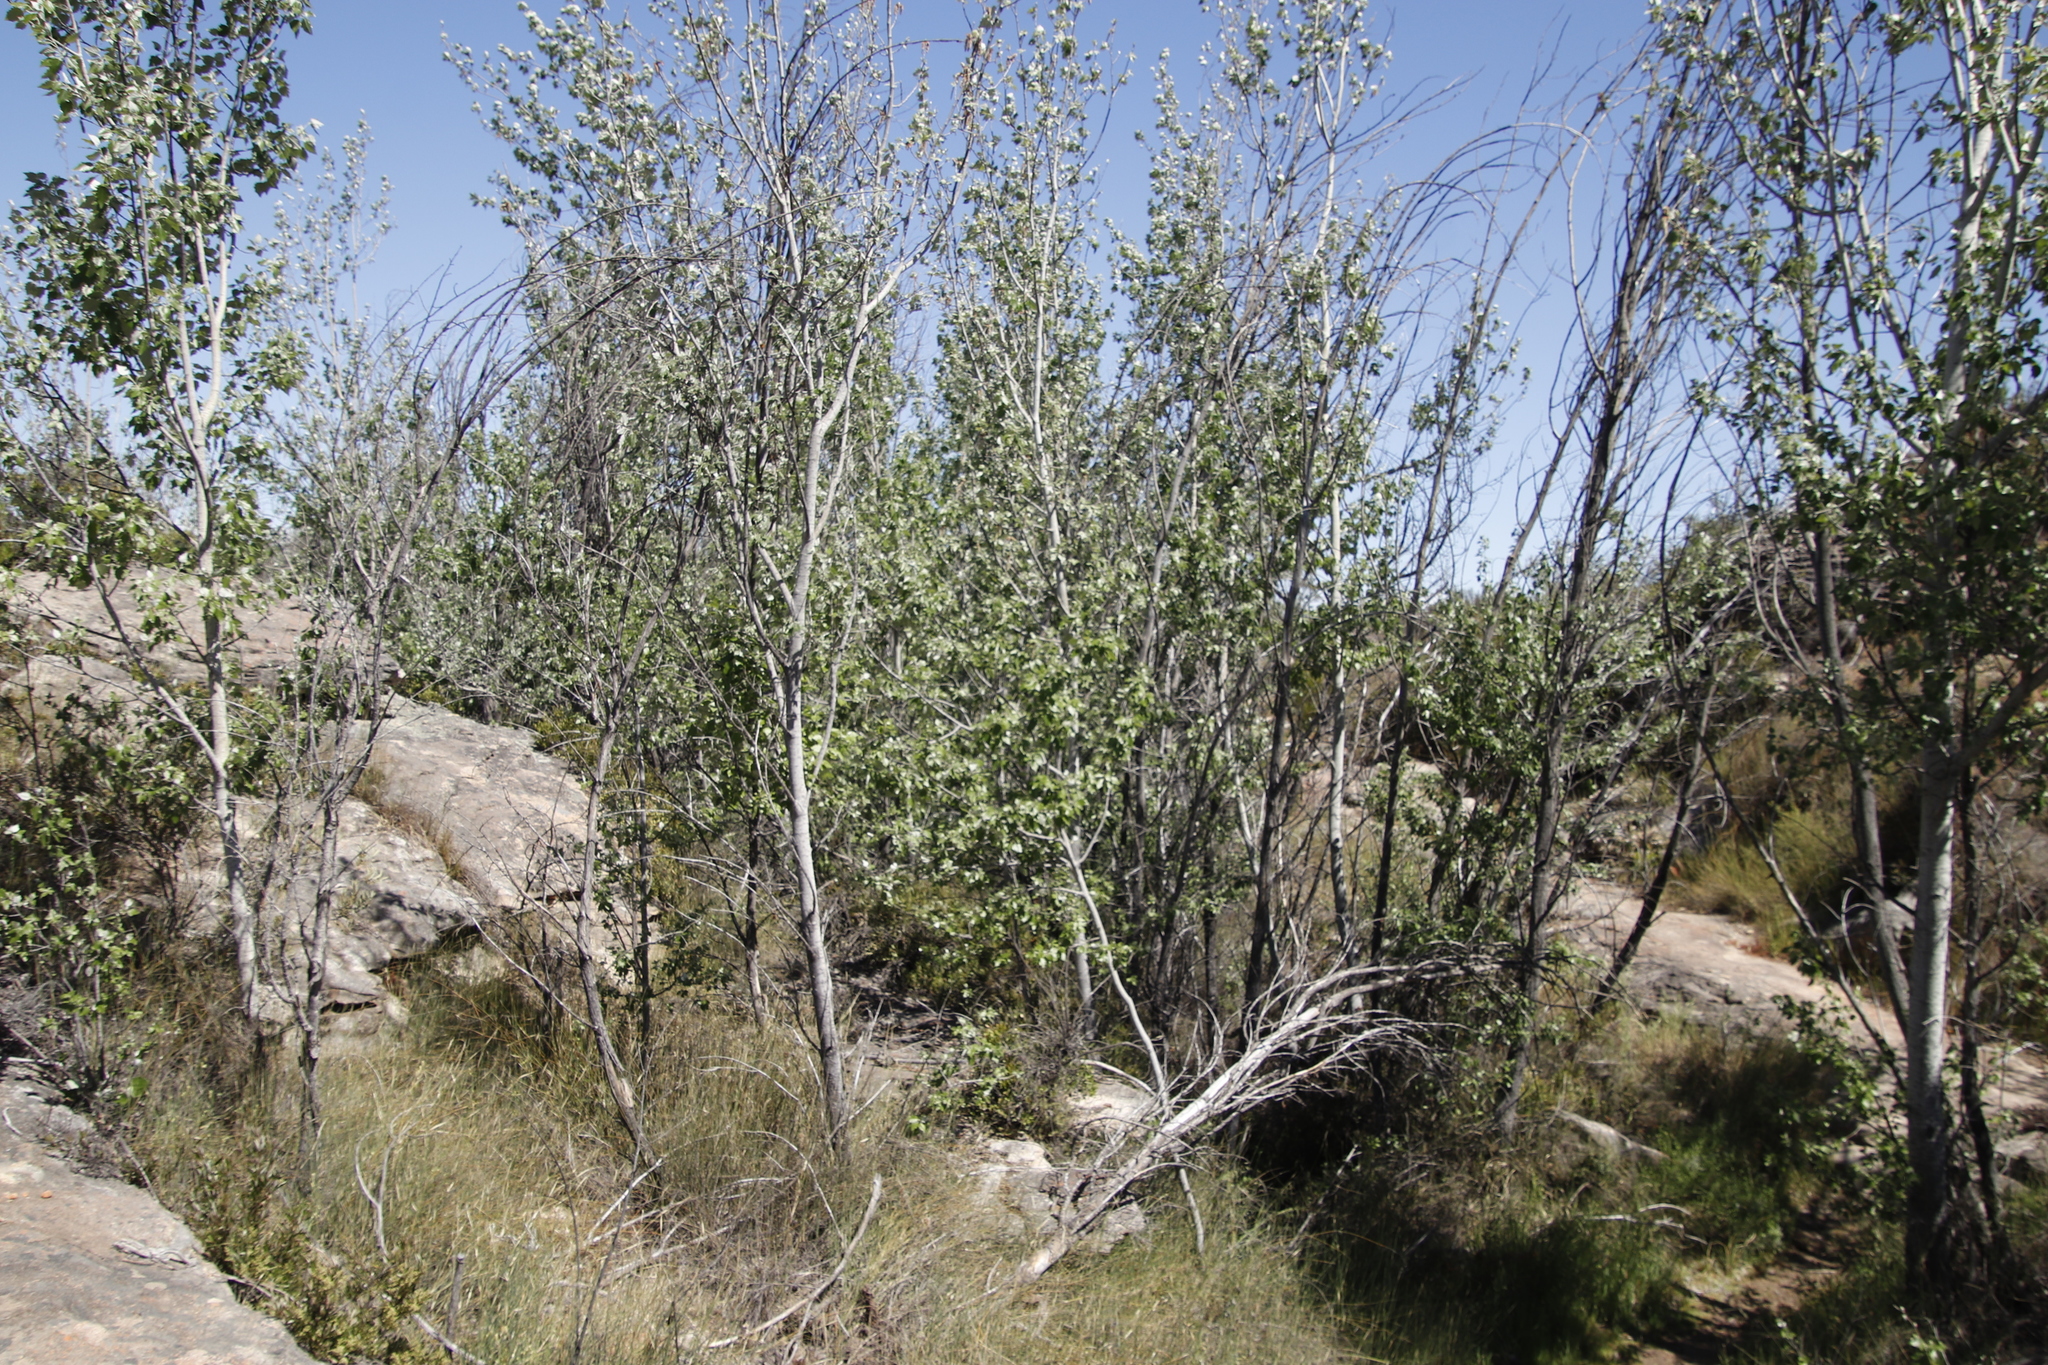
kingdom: Plantae
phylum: Tracheophyta
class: Magnoliopsida
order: Malpighiales
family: Salicaceae
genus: Populus
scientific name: Populus canescens
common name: Gray poplar
